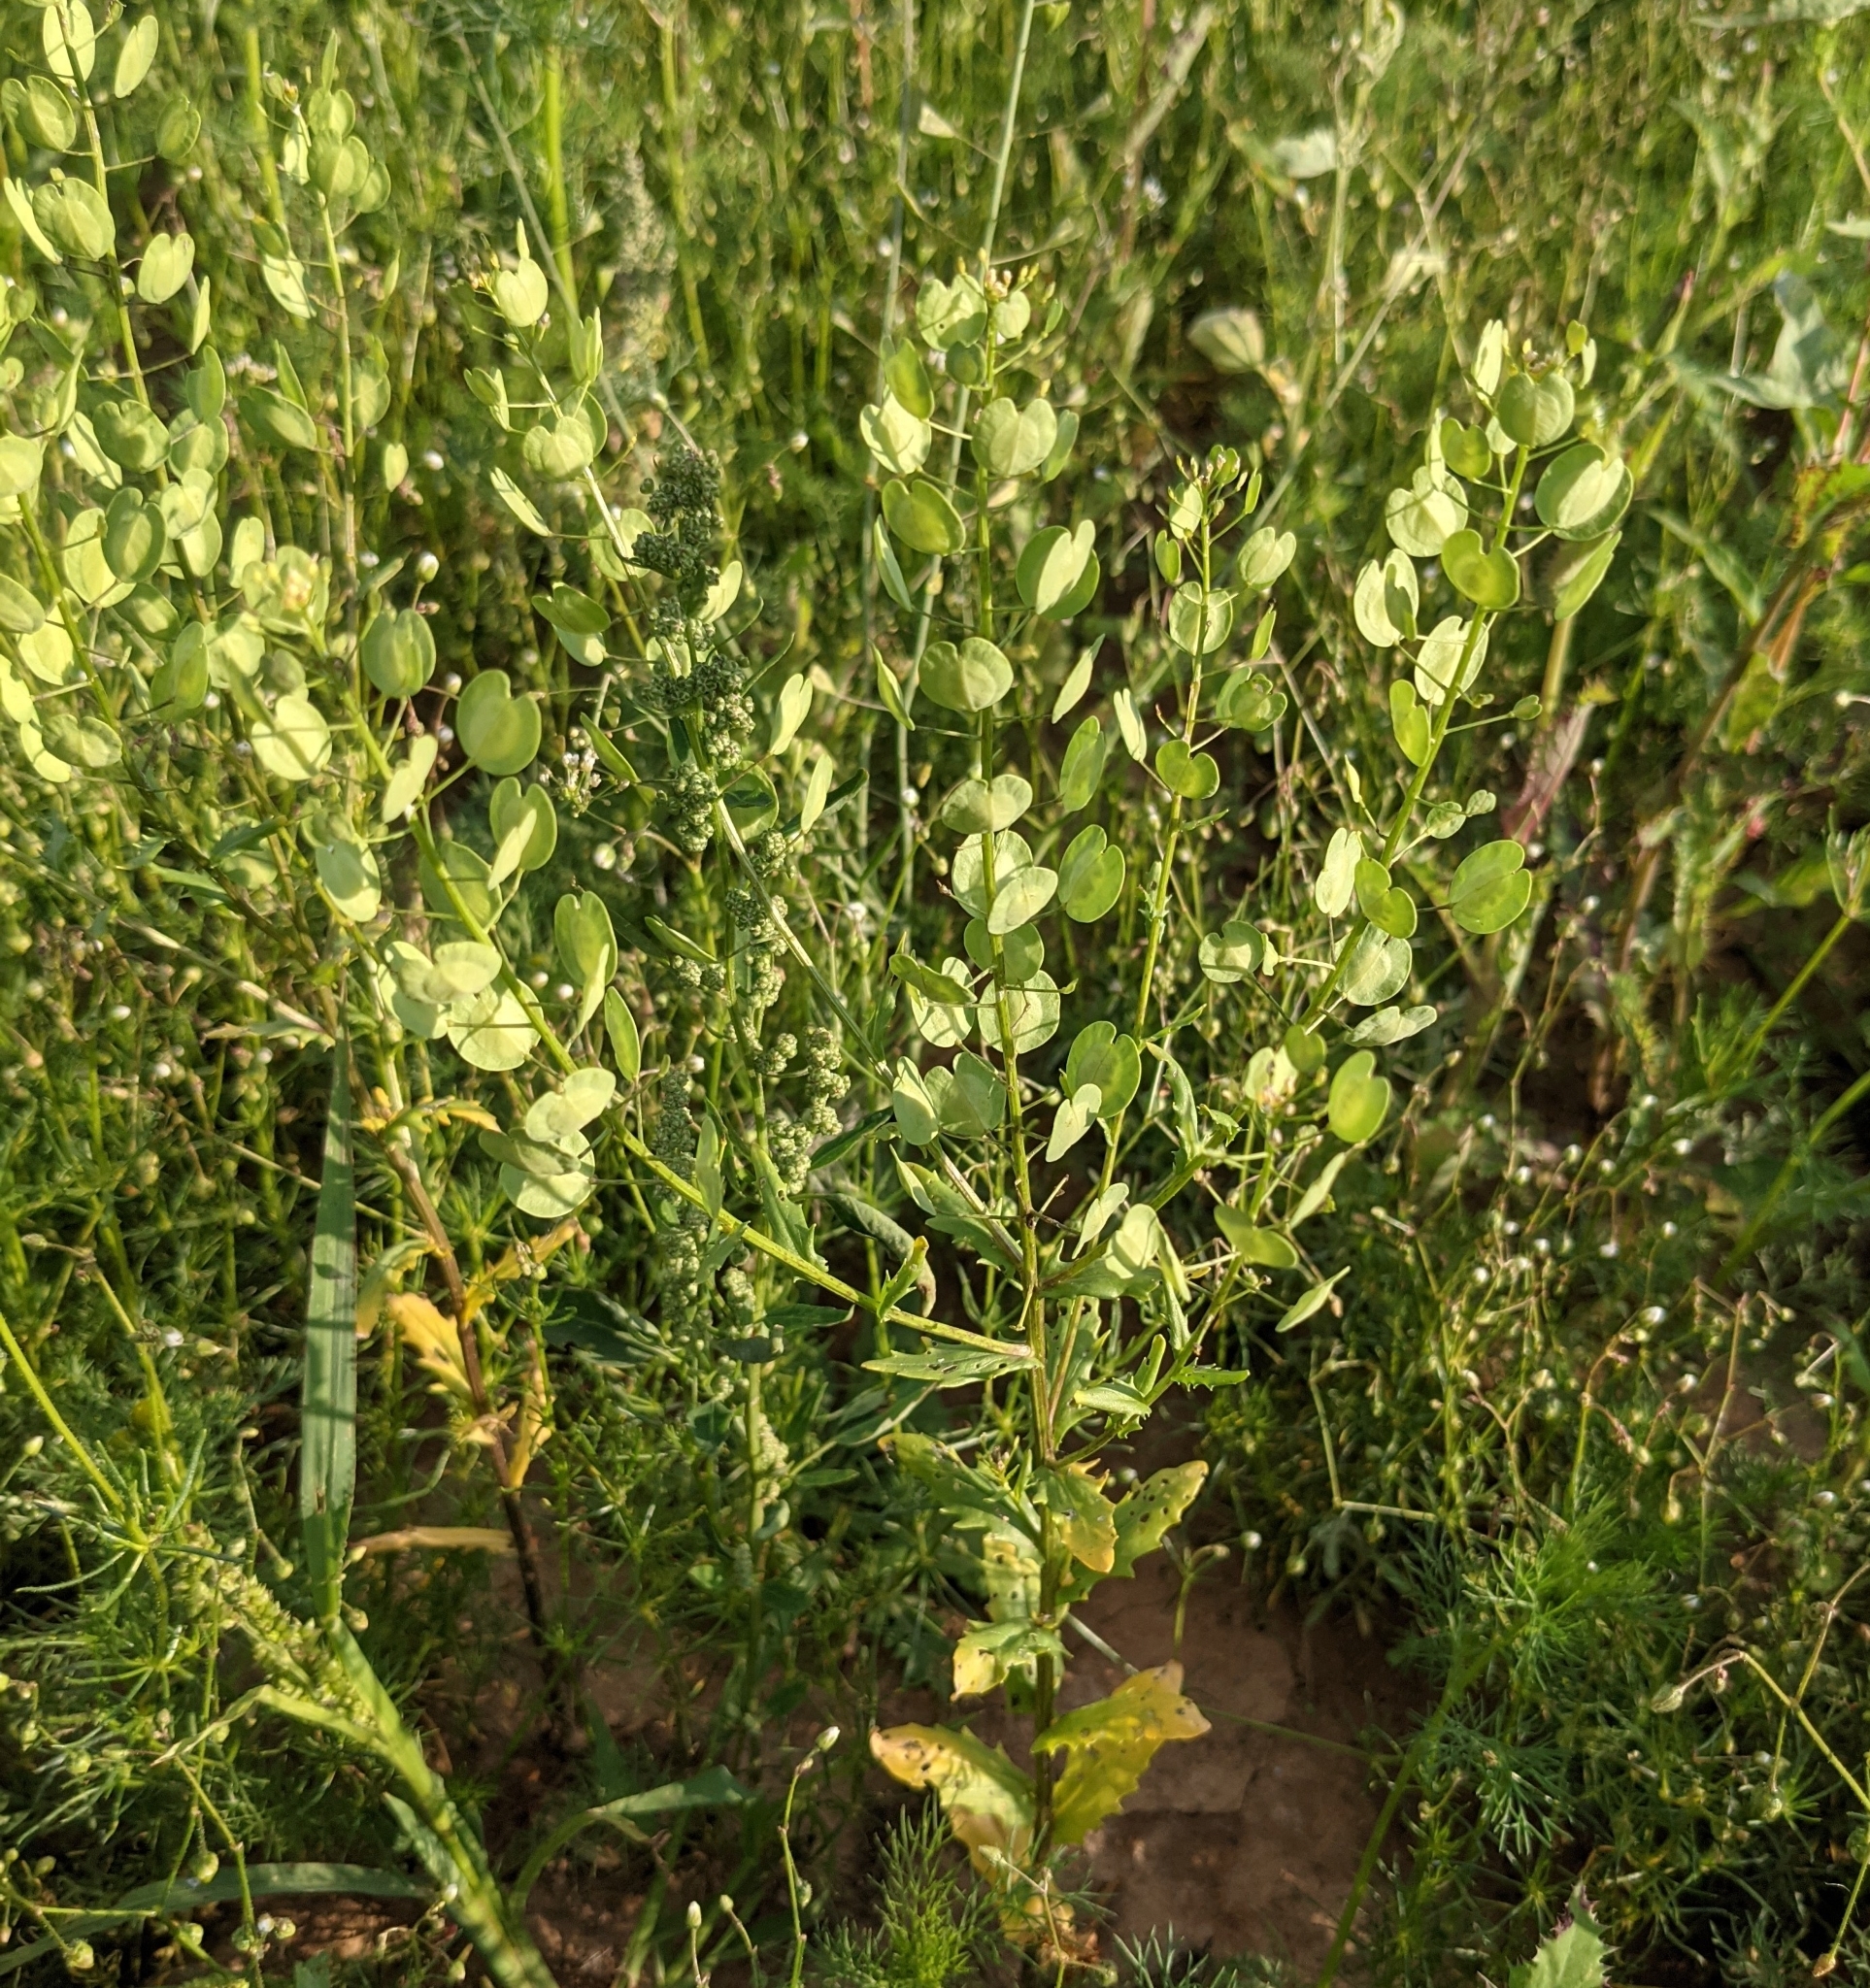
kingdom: Plantae
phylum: Tracheophyta
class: Magnoliopsida
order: Brassicales
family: Brassicaceae
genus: Thlaspi
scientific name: Thlaspi arvense
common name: Field pennycress
